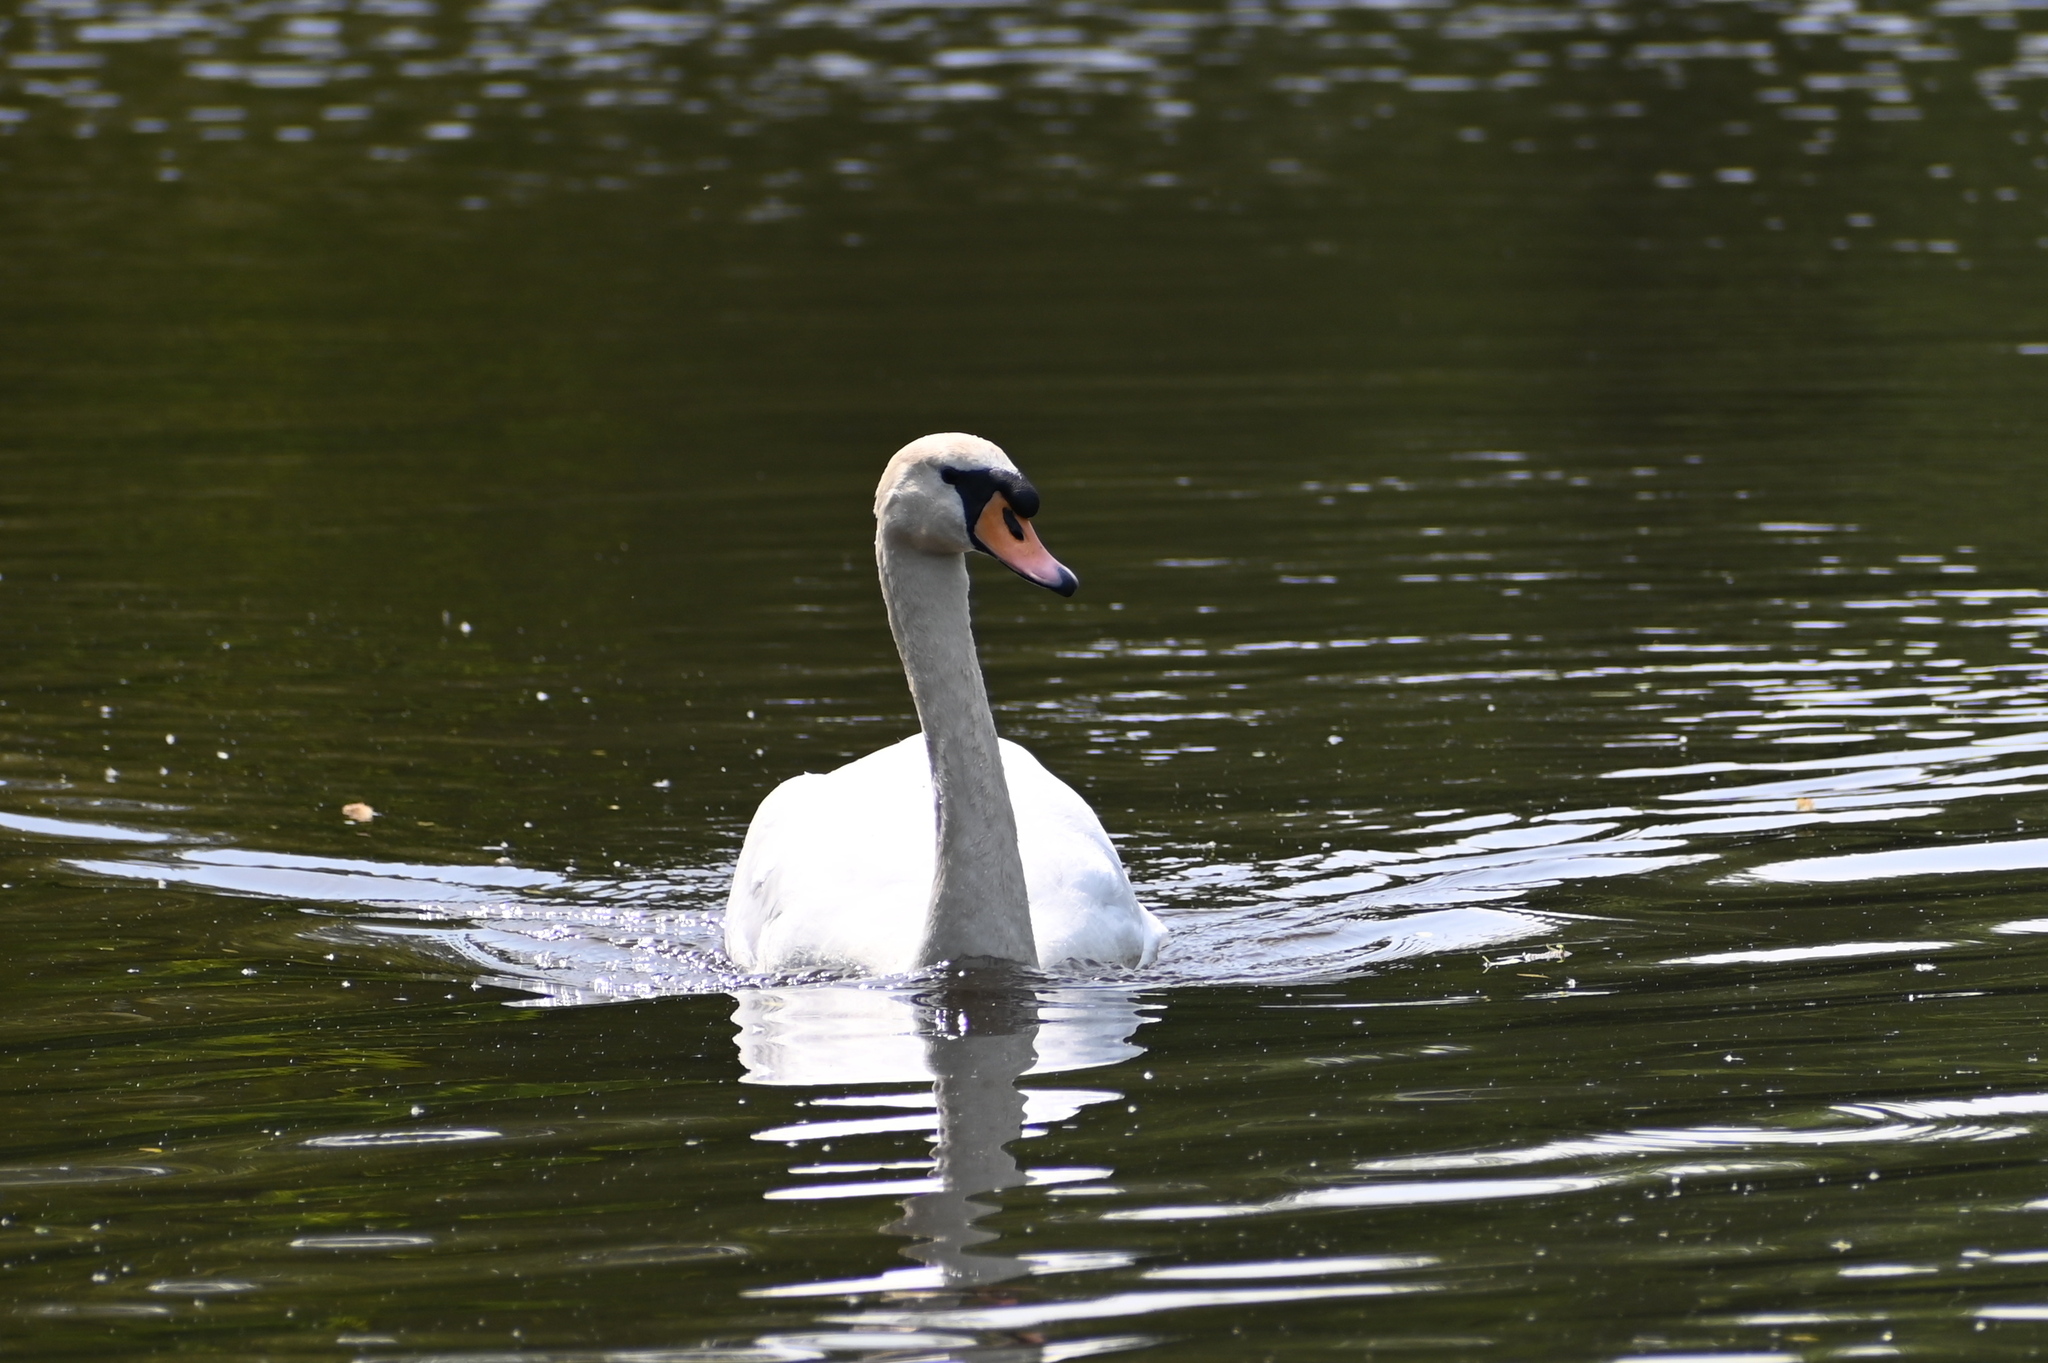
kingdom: Animalia
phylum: Chordata
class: Aves
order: Anseriformes
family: Anatidae
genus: Cygnus
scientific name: Cygnus olor
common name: Mute swan
